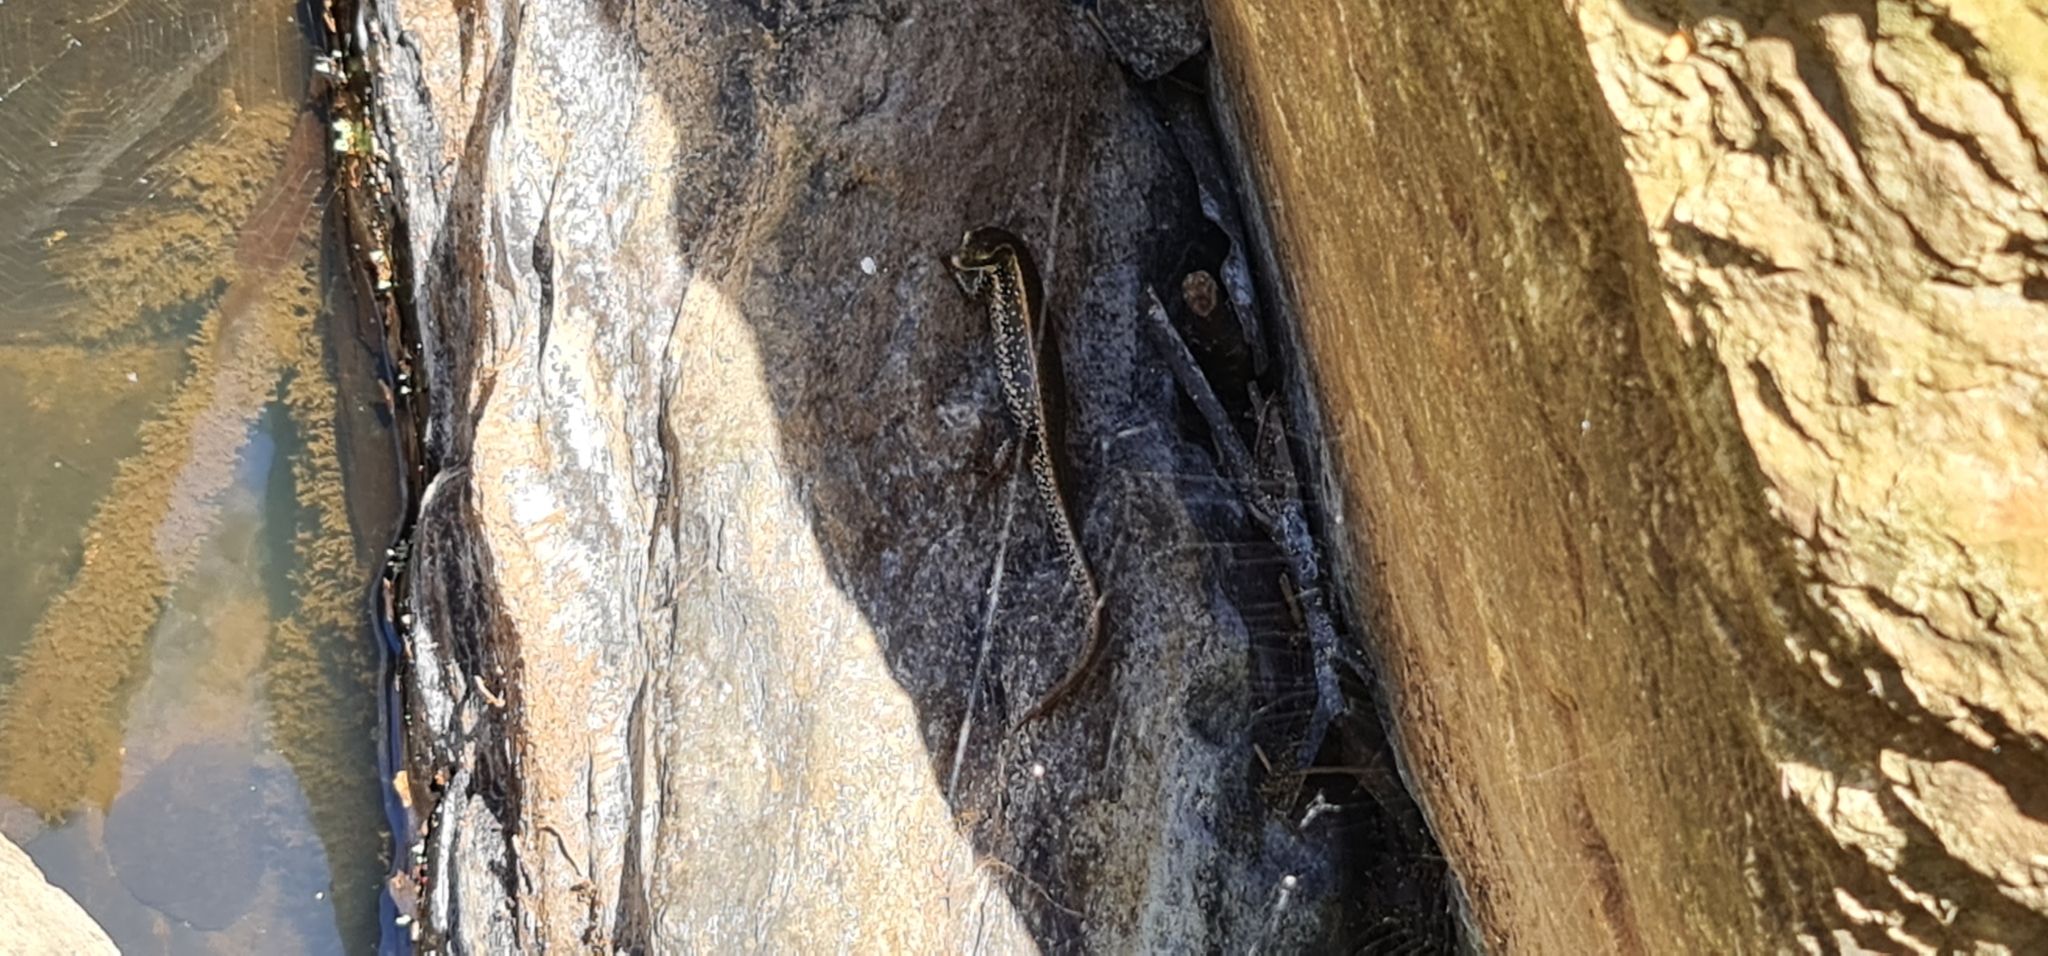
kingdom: Animalia
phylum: Chordata
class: Squamata
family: Scincidae
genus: Eulamprus
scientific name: Eulamprus quoyii
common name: Eastern water skink
